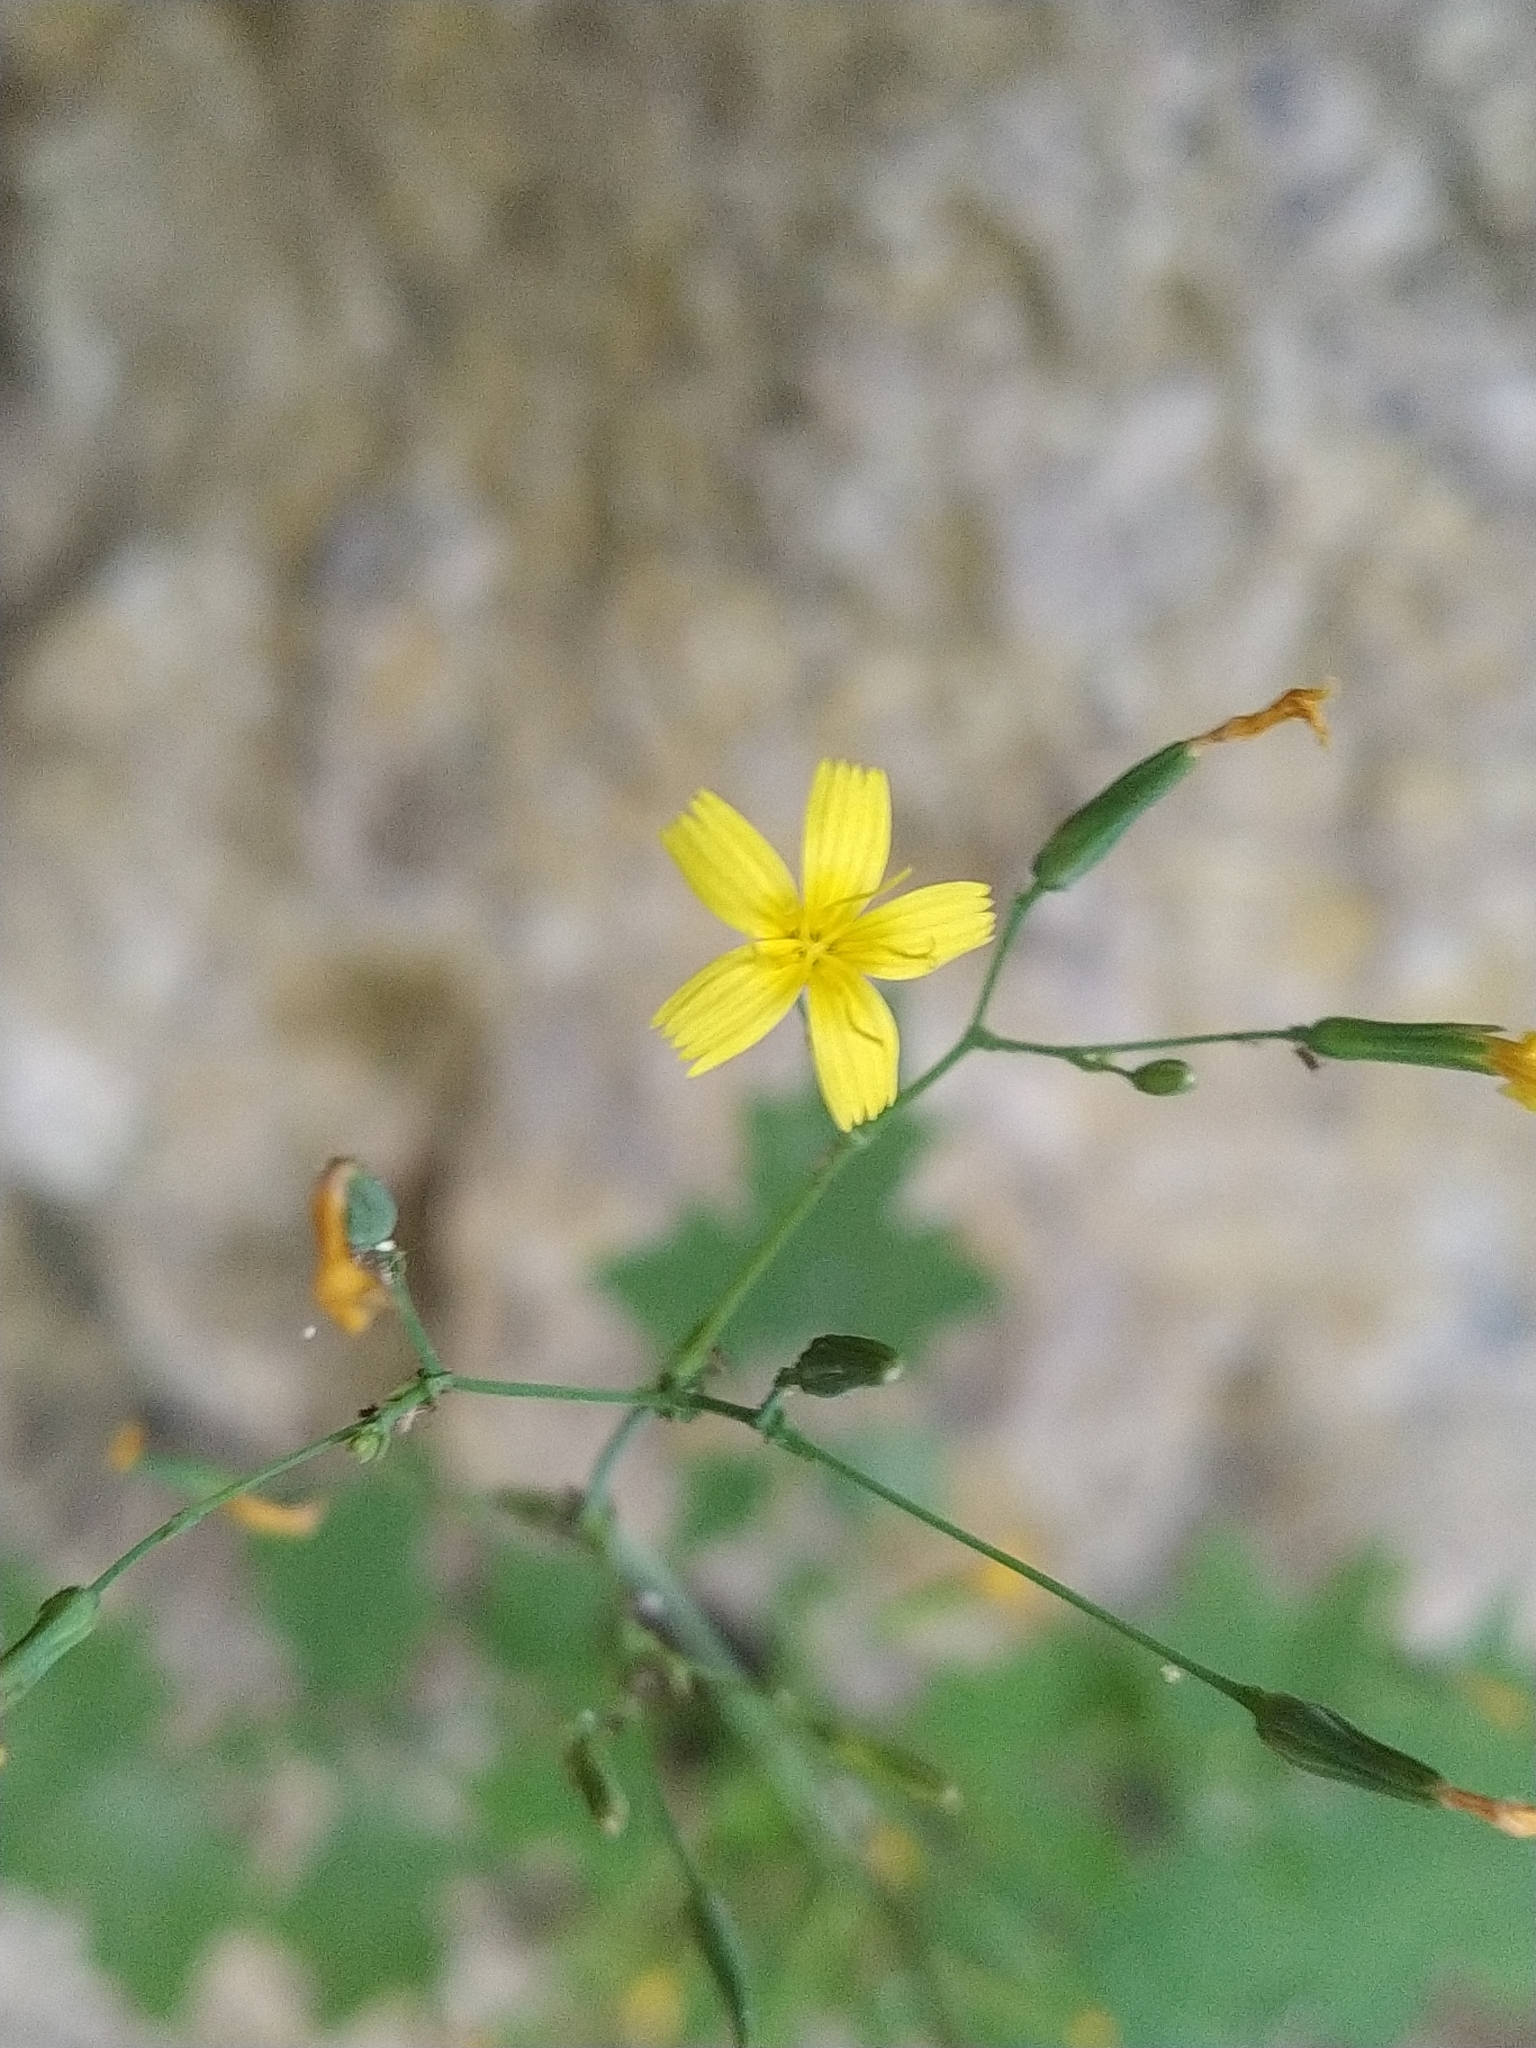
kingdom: Plantae
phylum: Tracheophyta
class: Magnoliopsida
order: Asterales
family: Asteraceae
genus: Mycelis
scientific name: Mycelis muralis
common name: Wall lettuce
